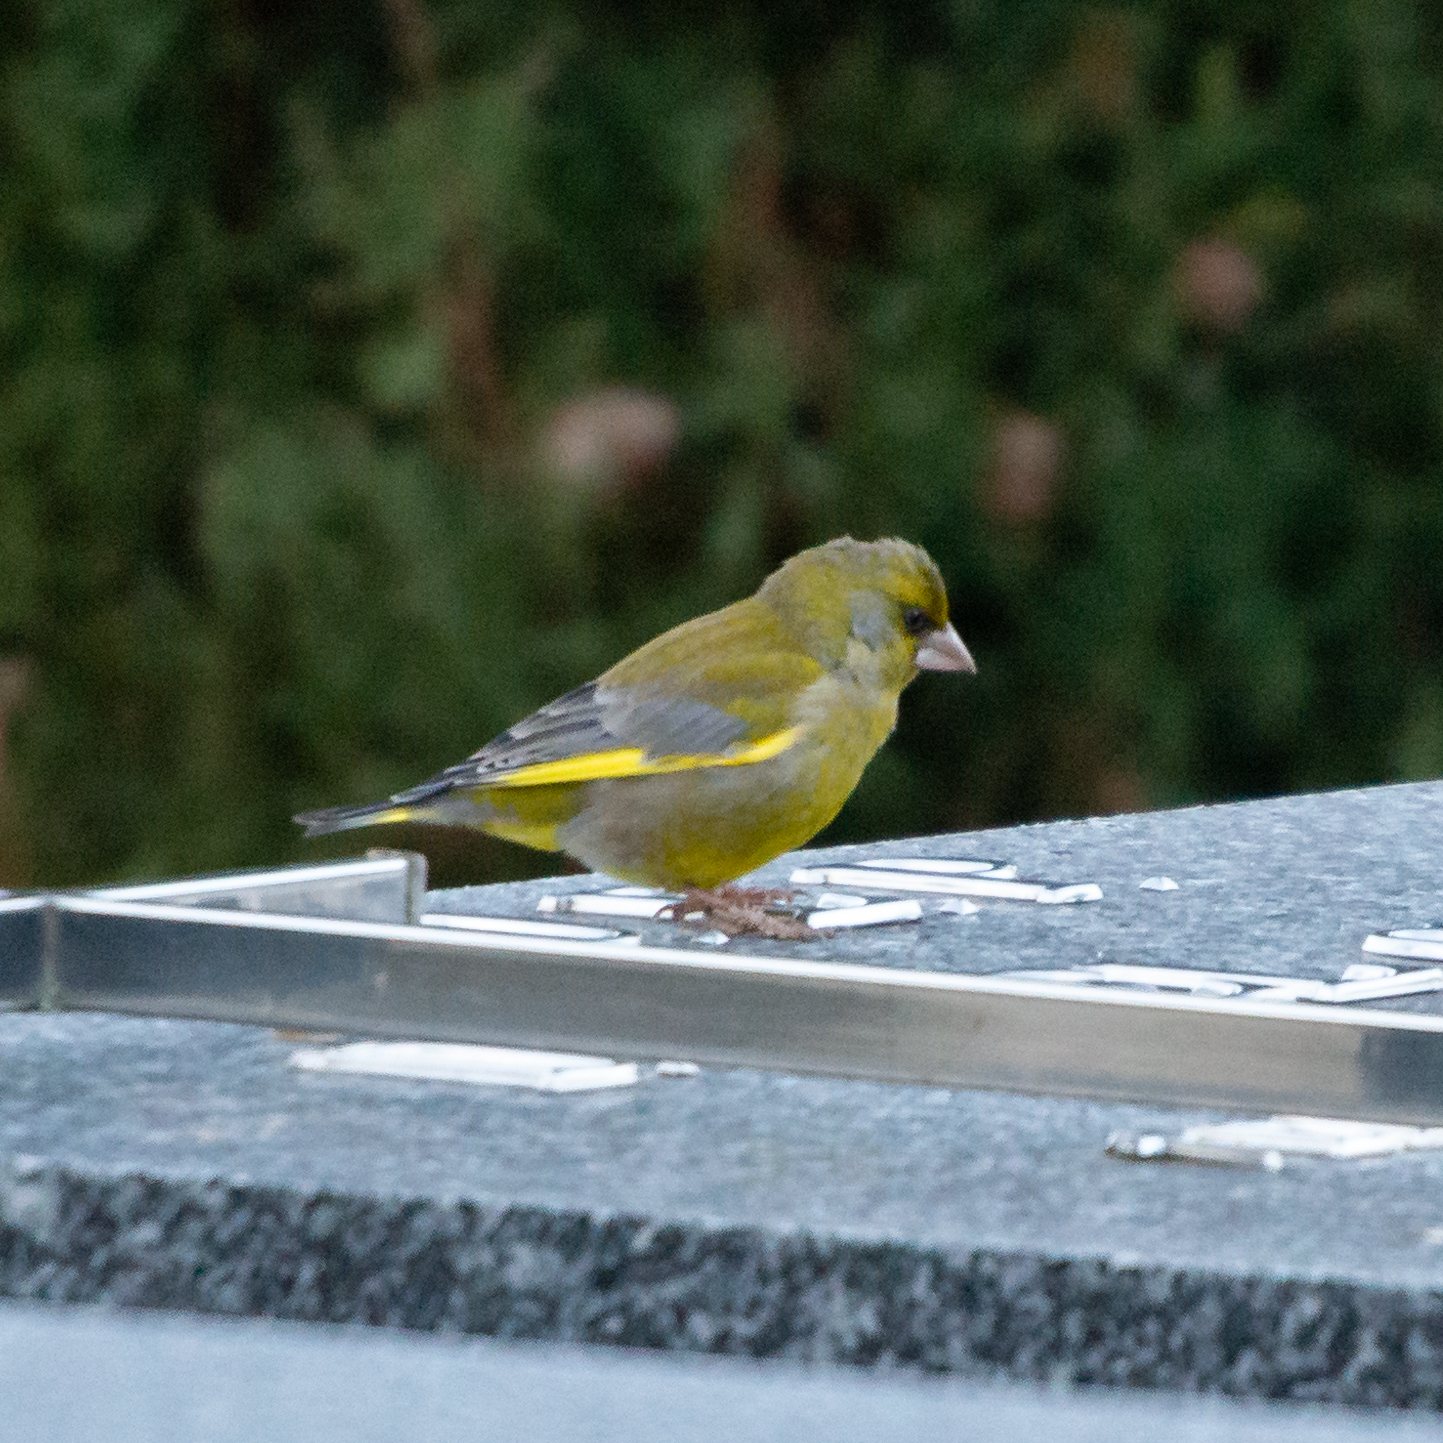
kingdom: Plantae
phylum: Tracheophyta
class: Liliopsida
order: Poales
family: Poaceae
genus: Chloris
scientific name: Chloris chloris
